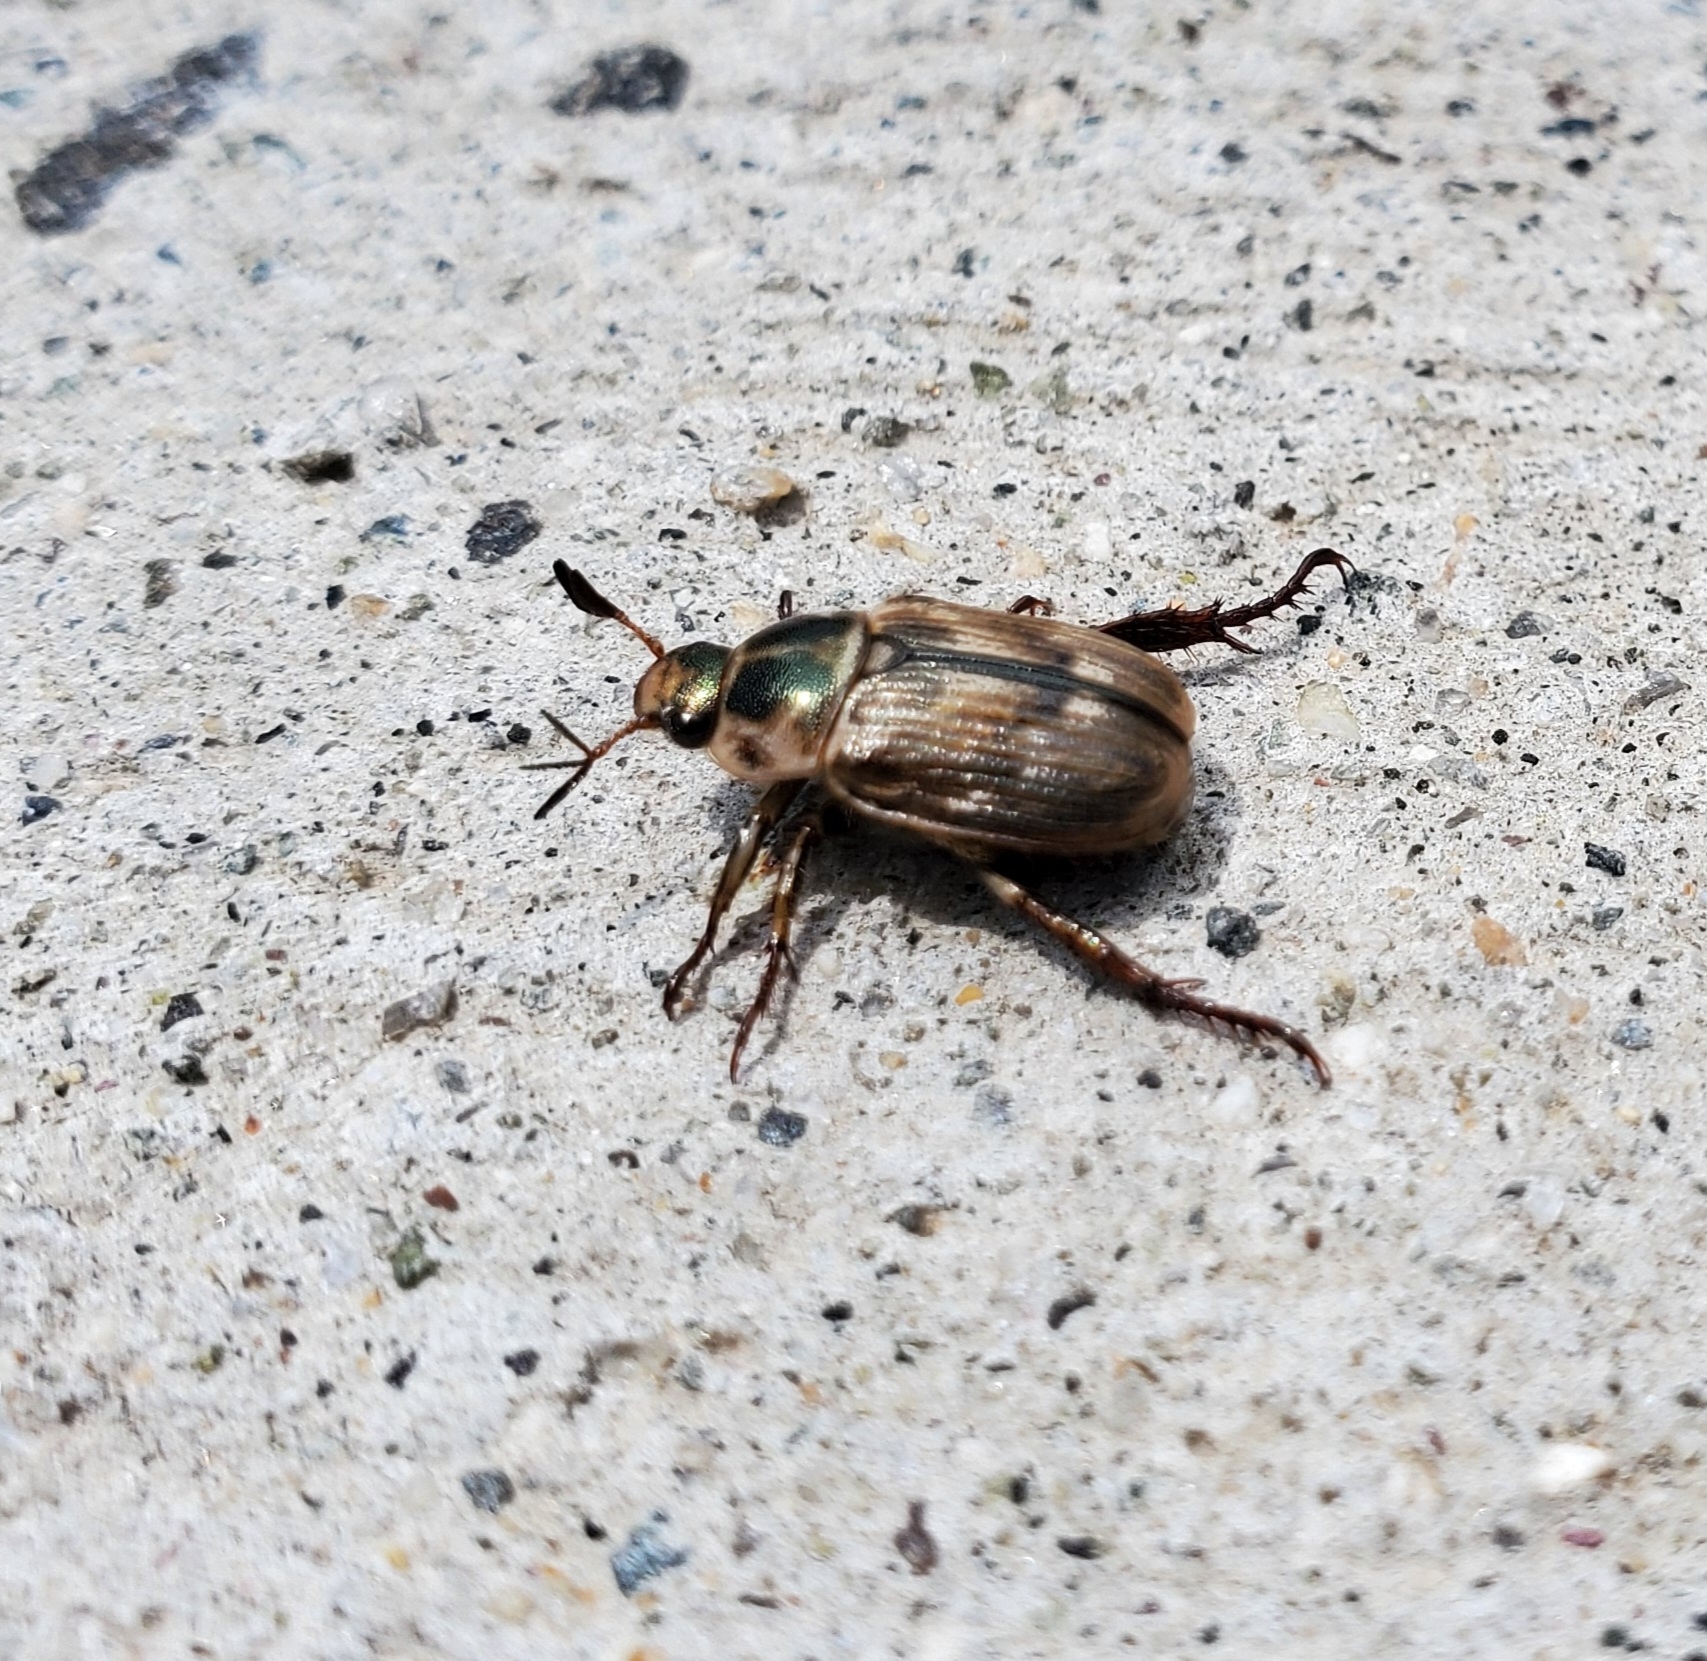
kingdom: Animalia
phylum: Arthropoda
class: Insecta
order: Coleoptera
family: Scarabaeidae
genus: Exomala
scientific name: Exomala orientalis
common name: Oriental beetle
